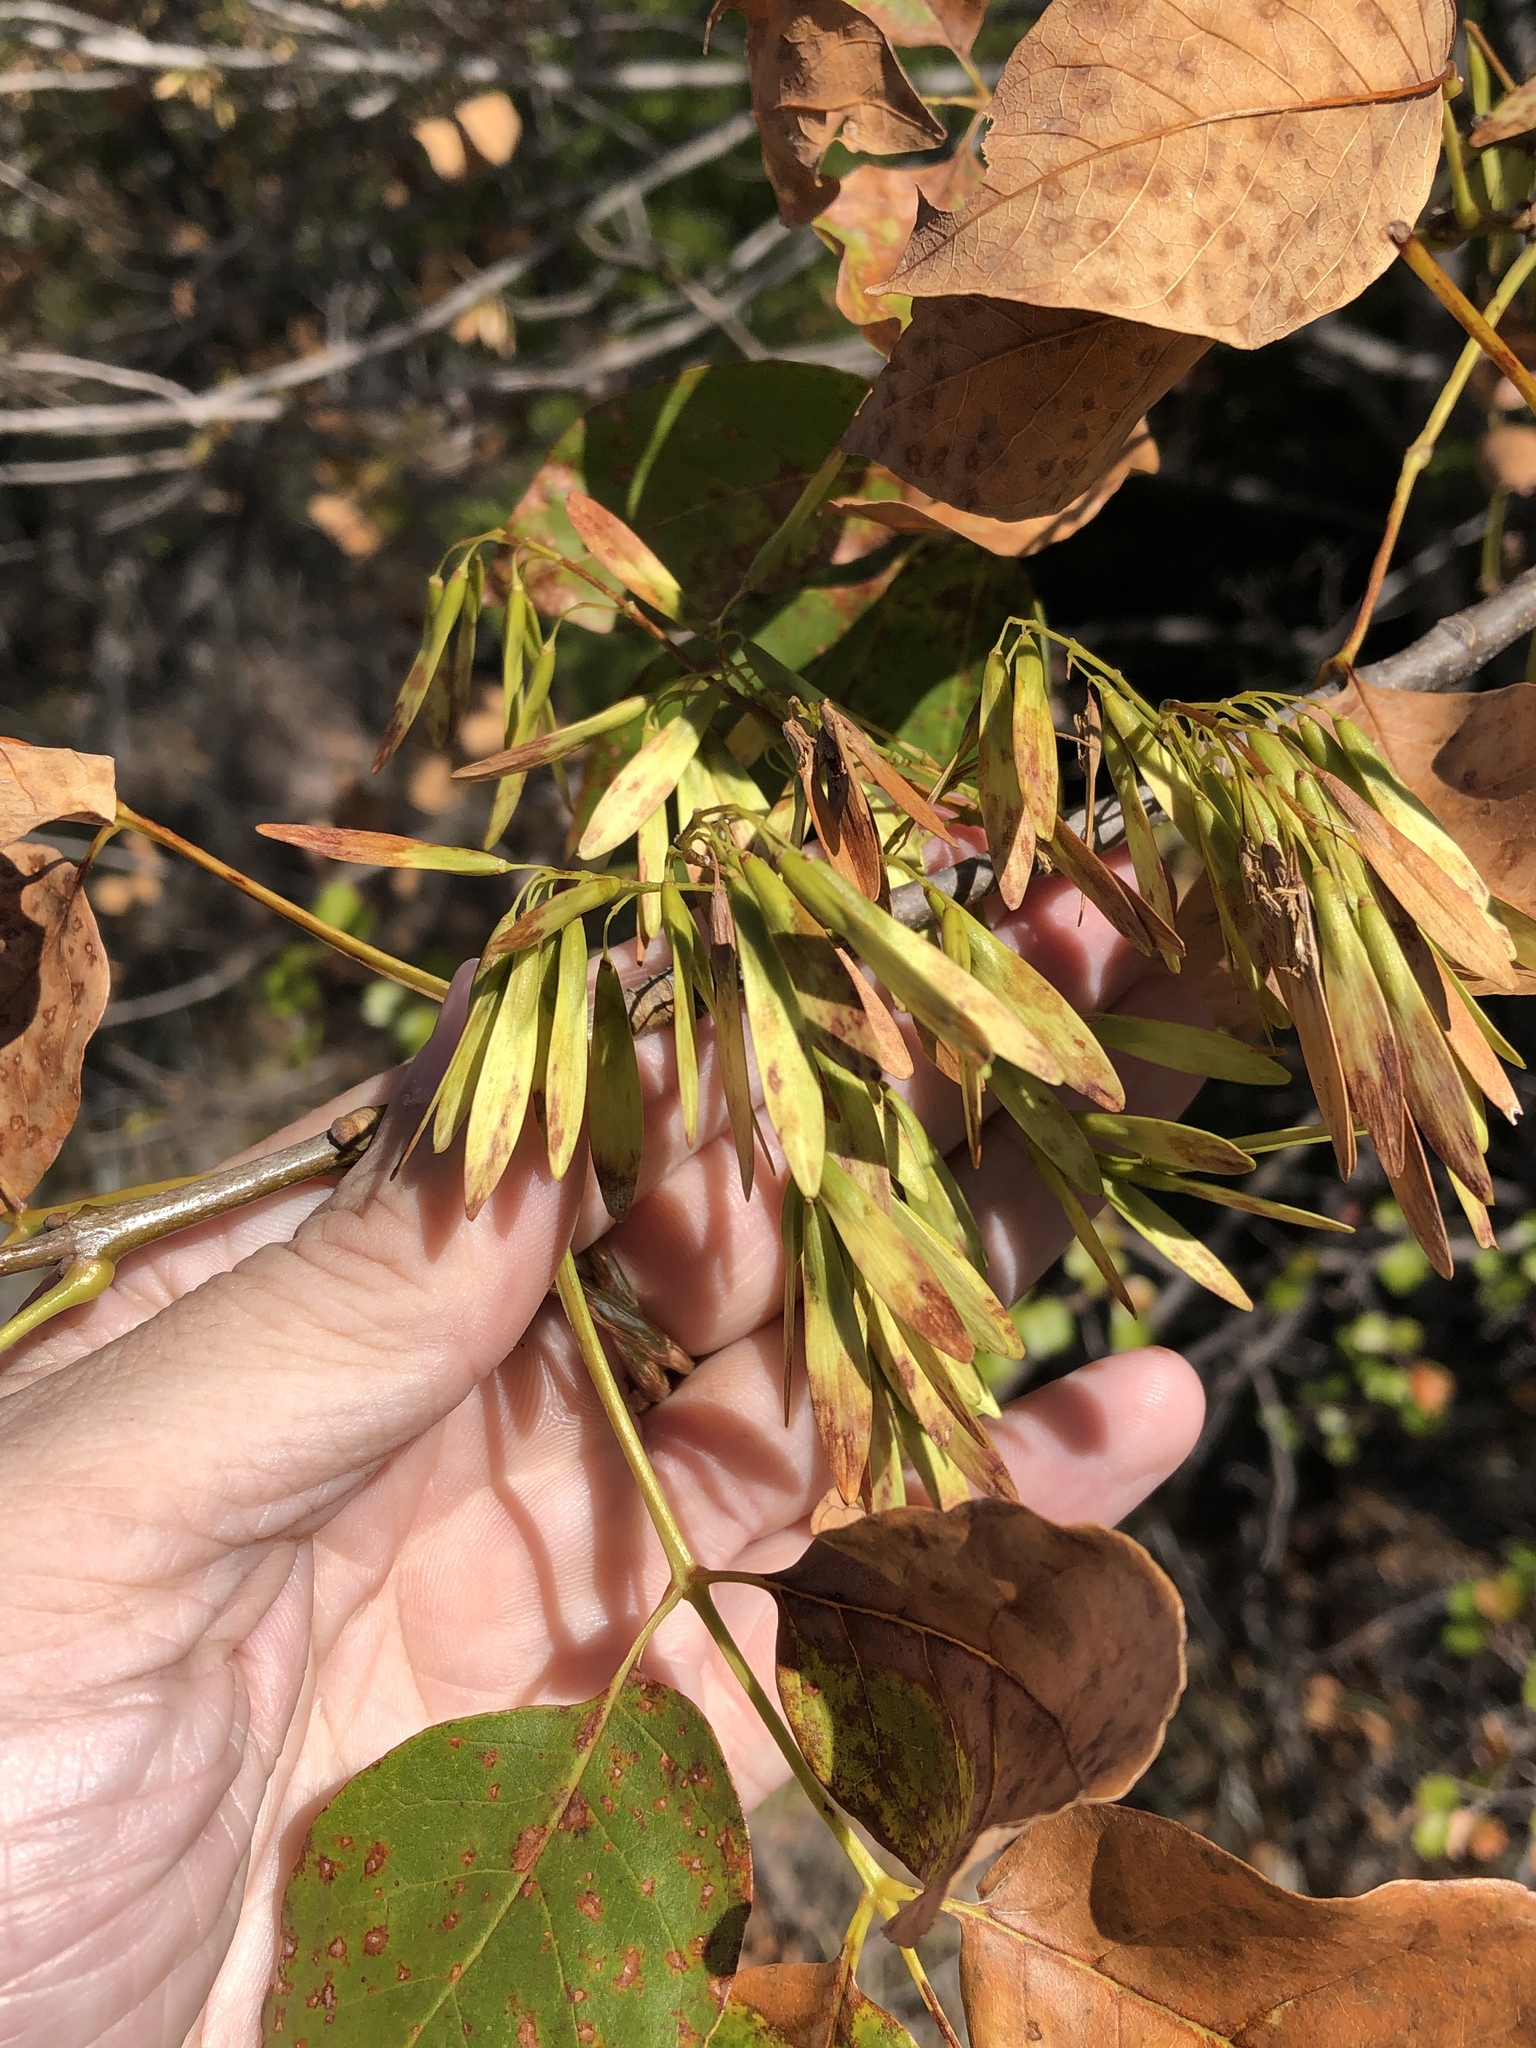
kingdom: Plantae
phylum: Tracheophyta
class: Magnoliopsida
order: Lamiales
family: Oleaceae
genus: Fraxinus
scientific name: Fraxinus albicans
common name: Texas ash
